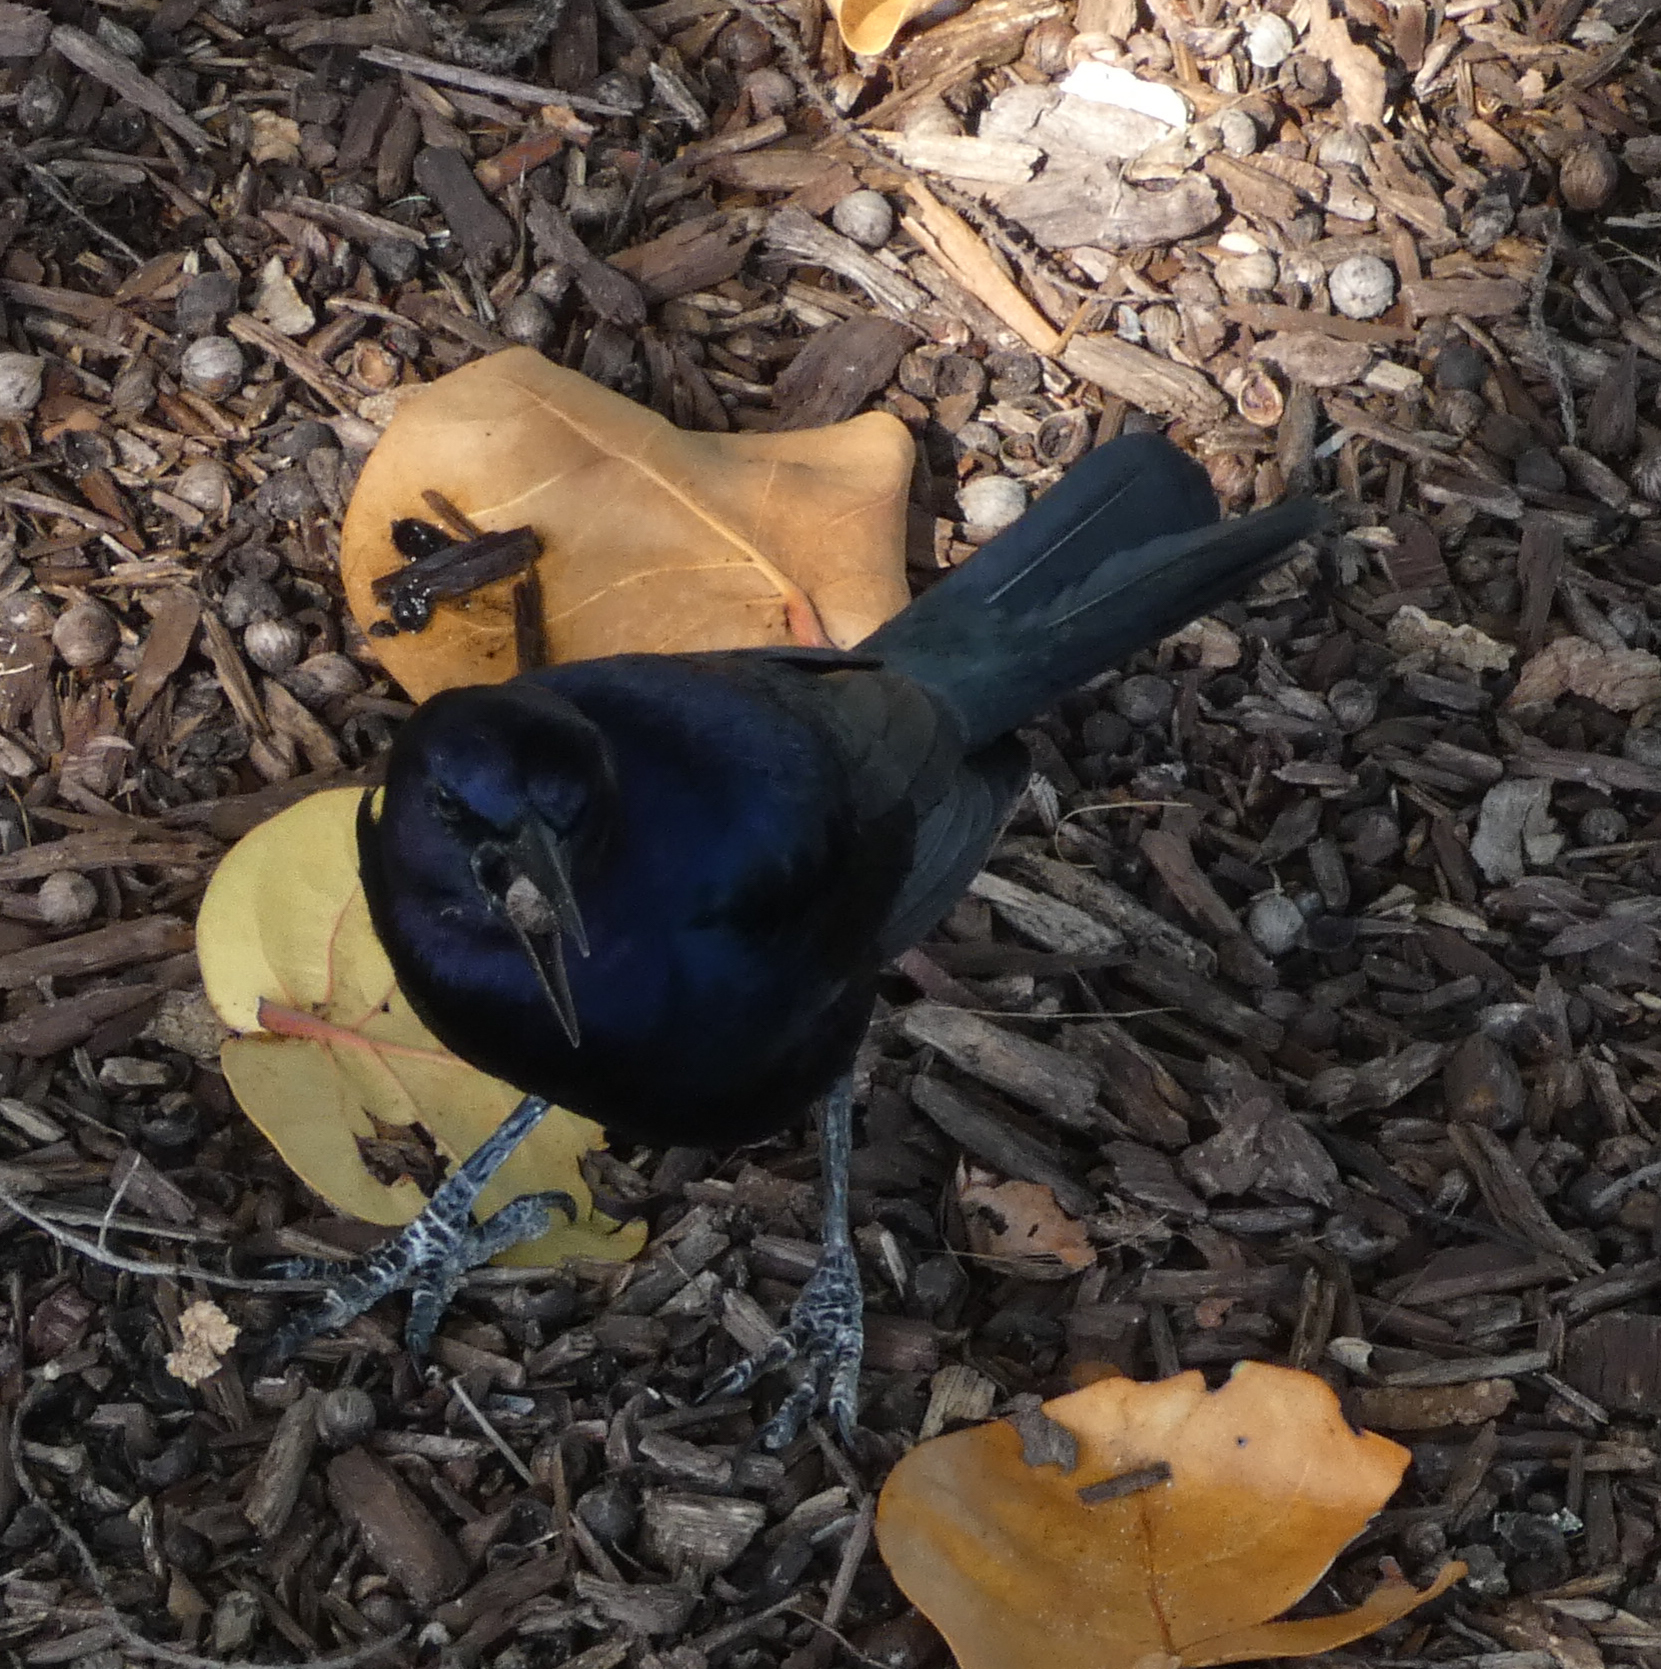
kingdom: Animalia
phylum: Chordata
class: Aves
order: Passeriformes
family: Icteridae
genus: Quiscalus
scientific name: Quiscalus major
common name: Boat-tailed grackle
